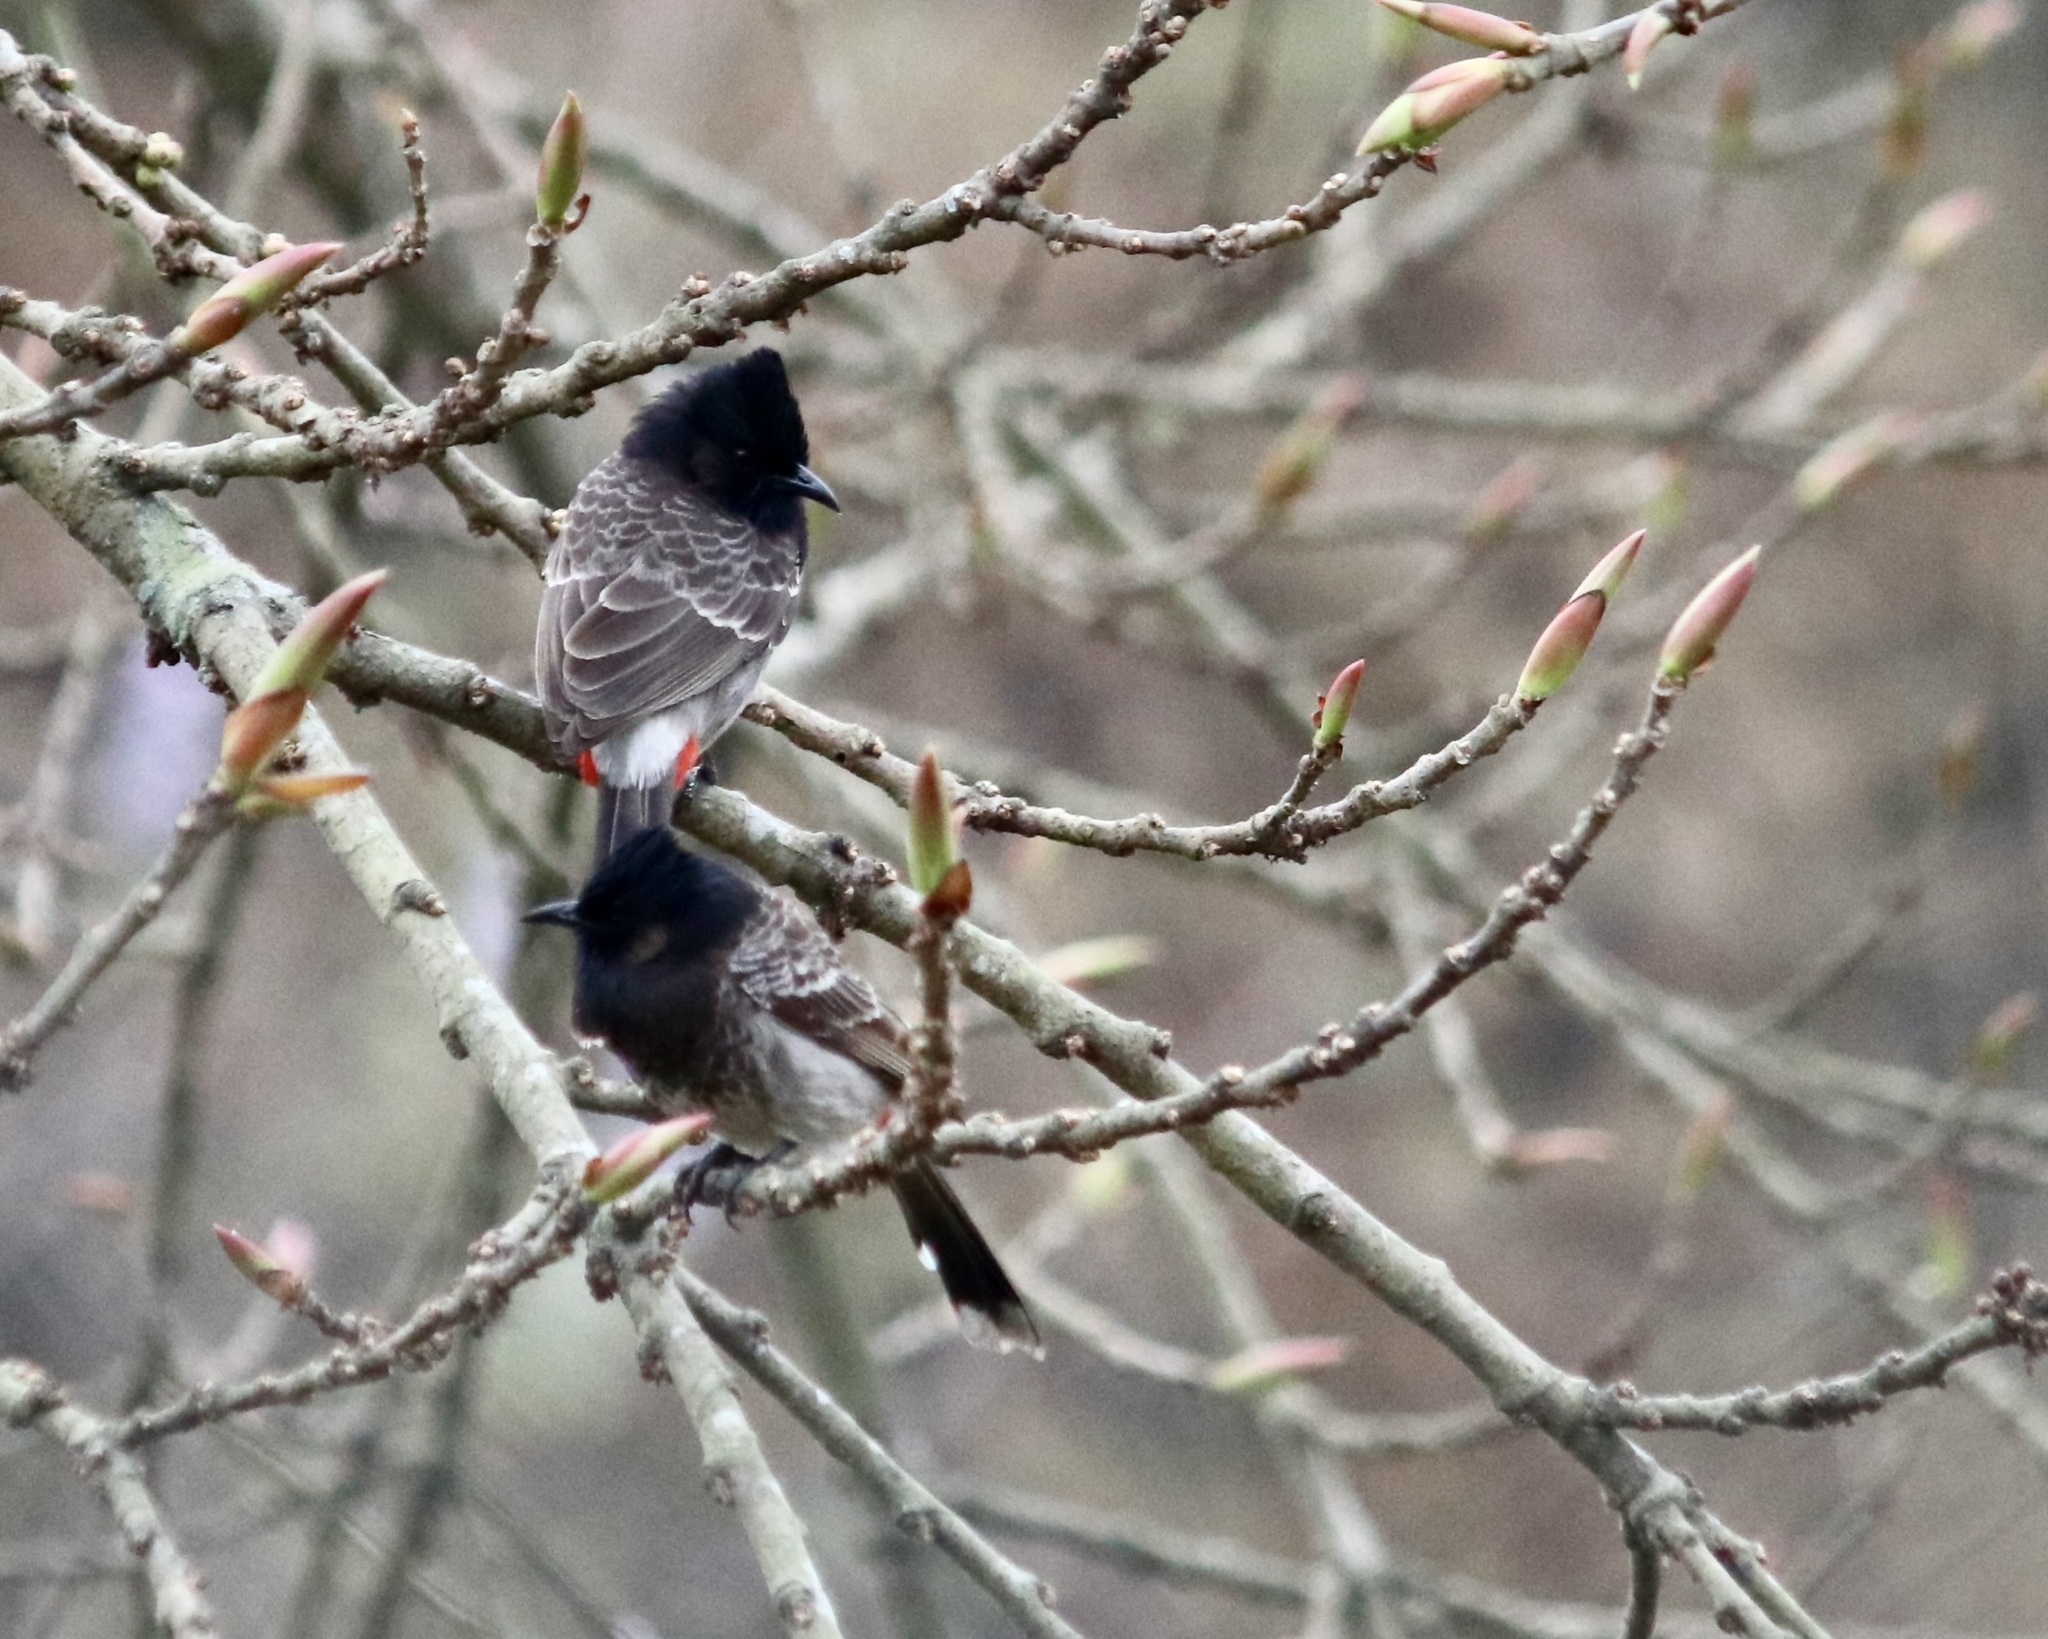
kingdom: Animalia
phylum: Chordata
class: Aves
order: Passeriformes
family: Pycnonotidae
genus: Pycnonotus
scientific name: Pycnonotus cafer
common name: Red-vented bulbul
